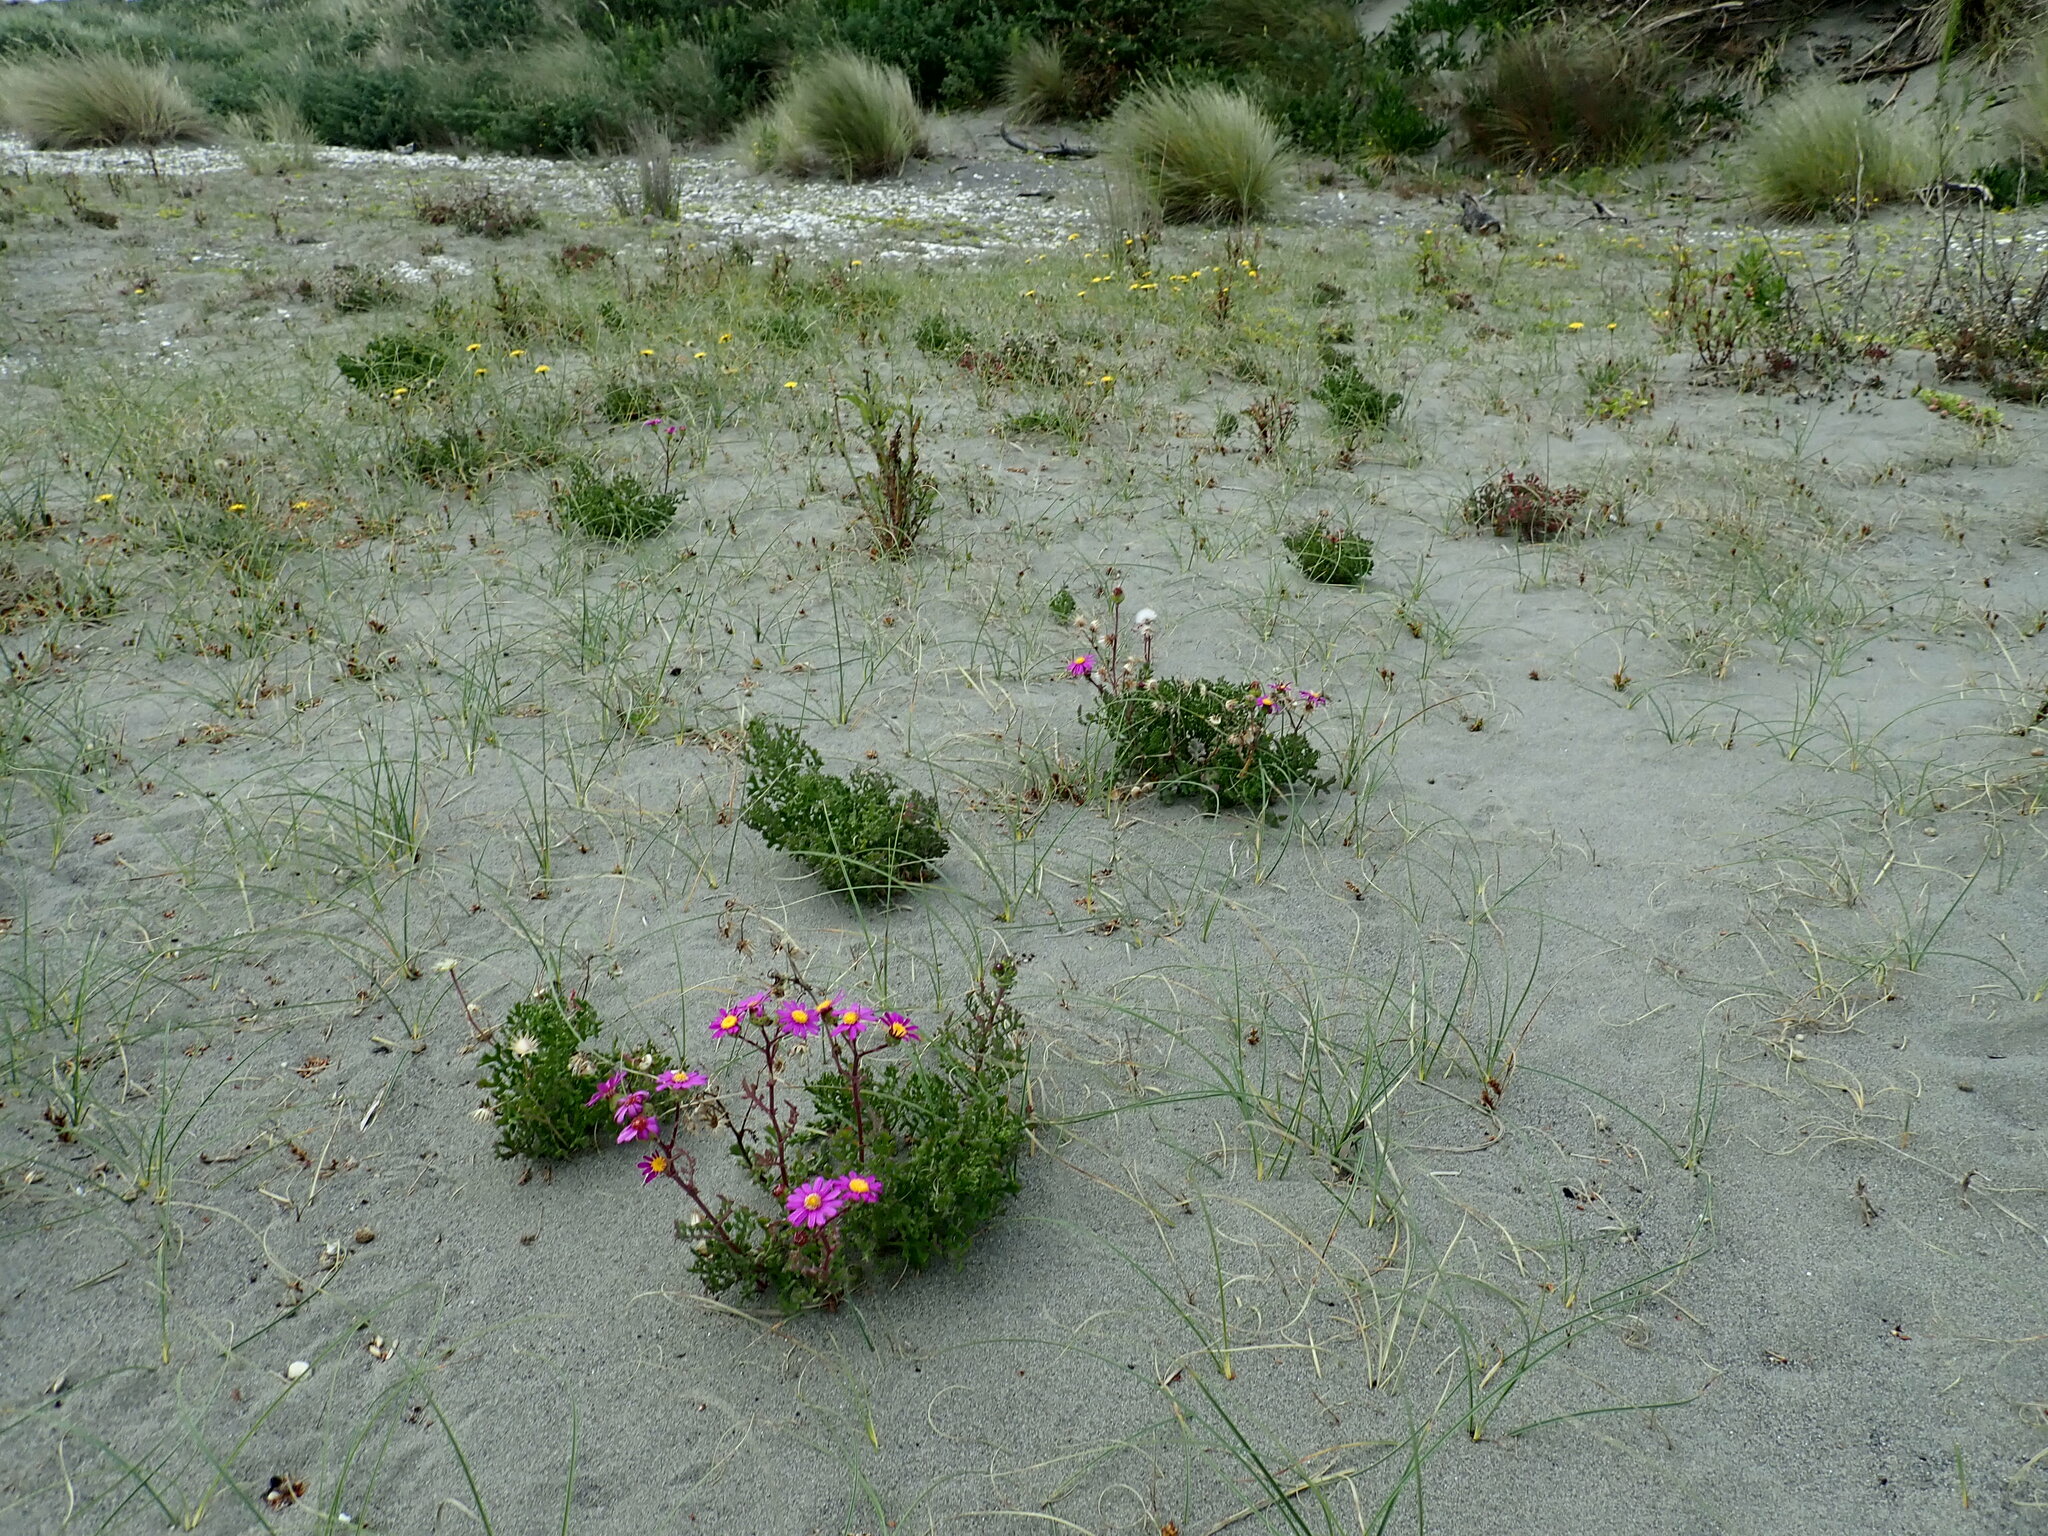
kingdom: Plantae
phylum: Tracheophyta
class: Magnoliopsida
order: Asterales
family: Asteraceae
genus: Senecio
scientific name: Senecio elegans
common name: Purple groundsel
